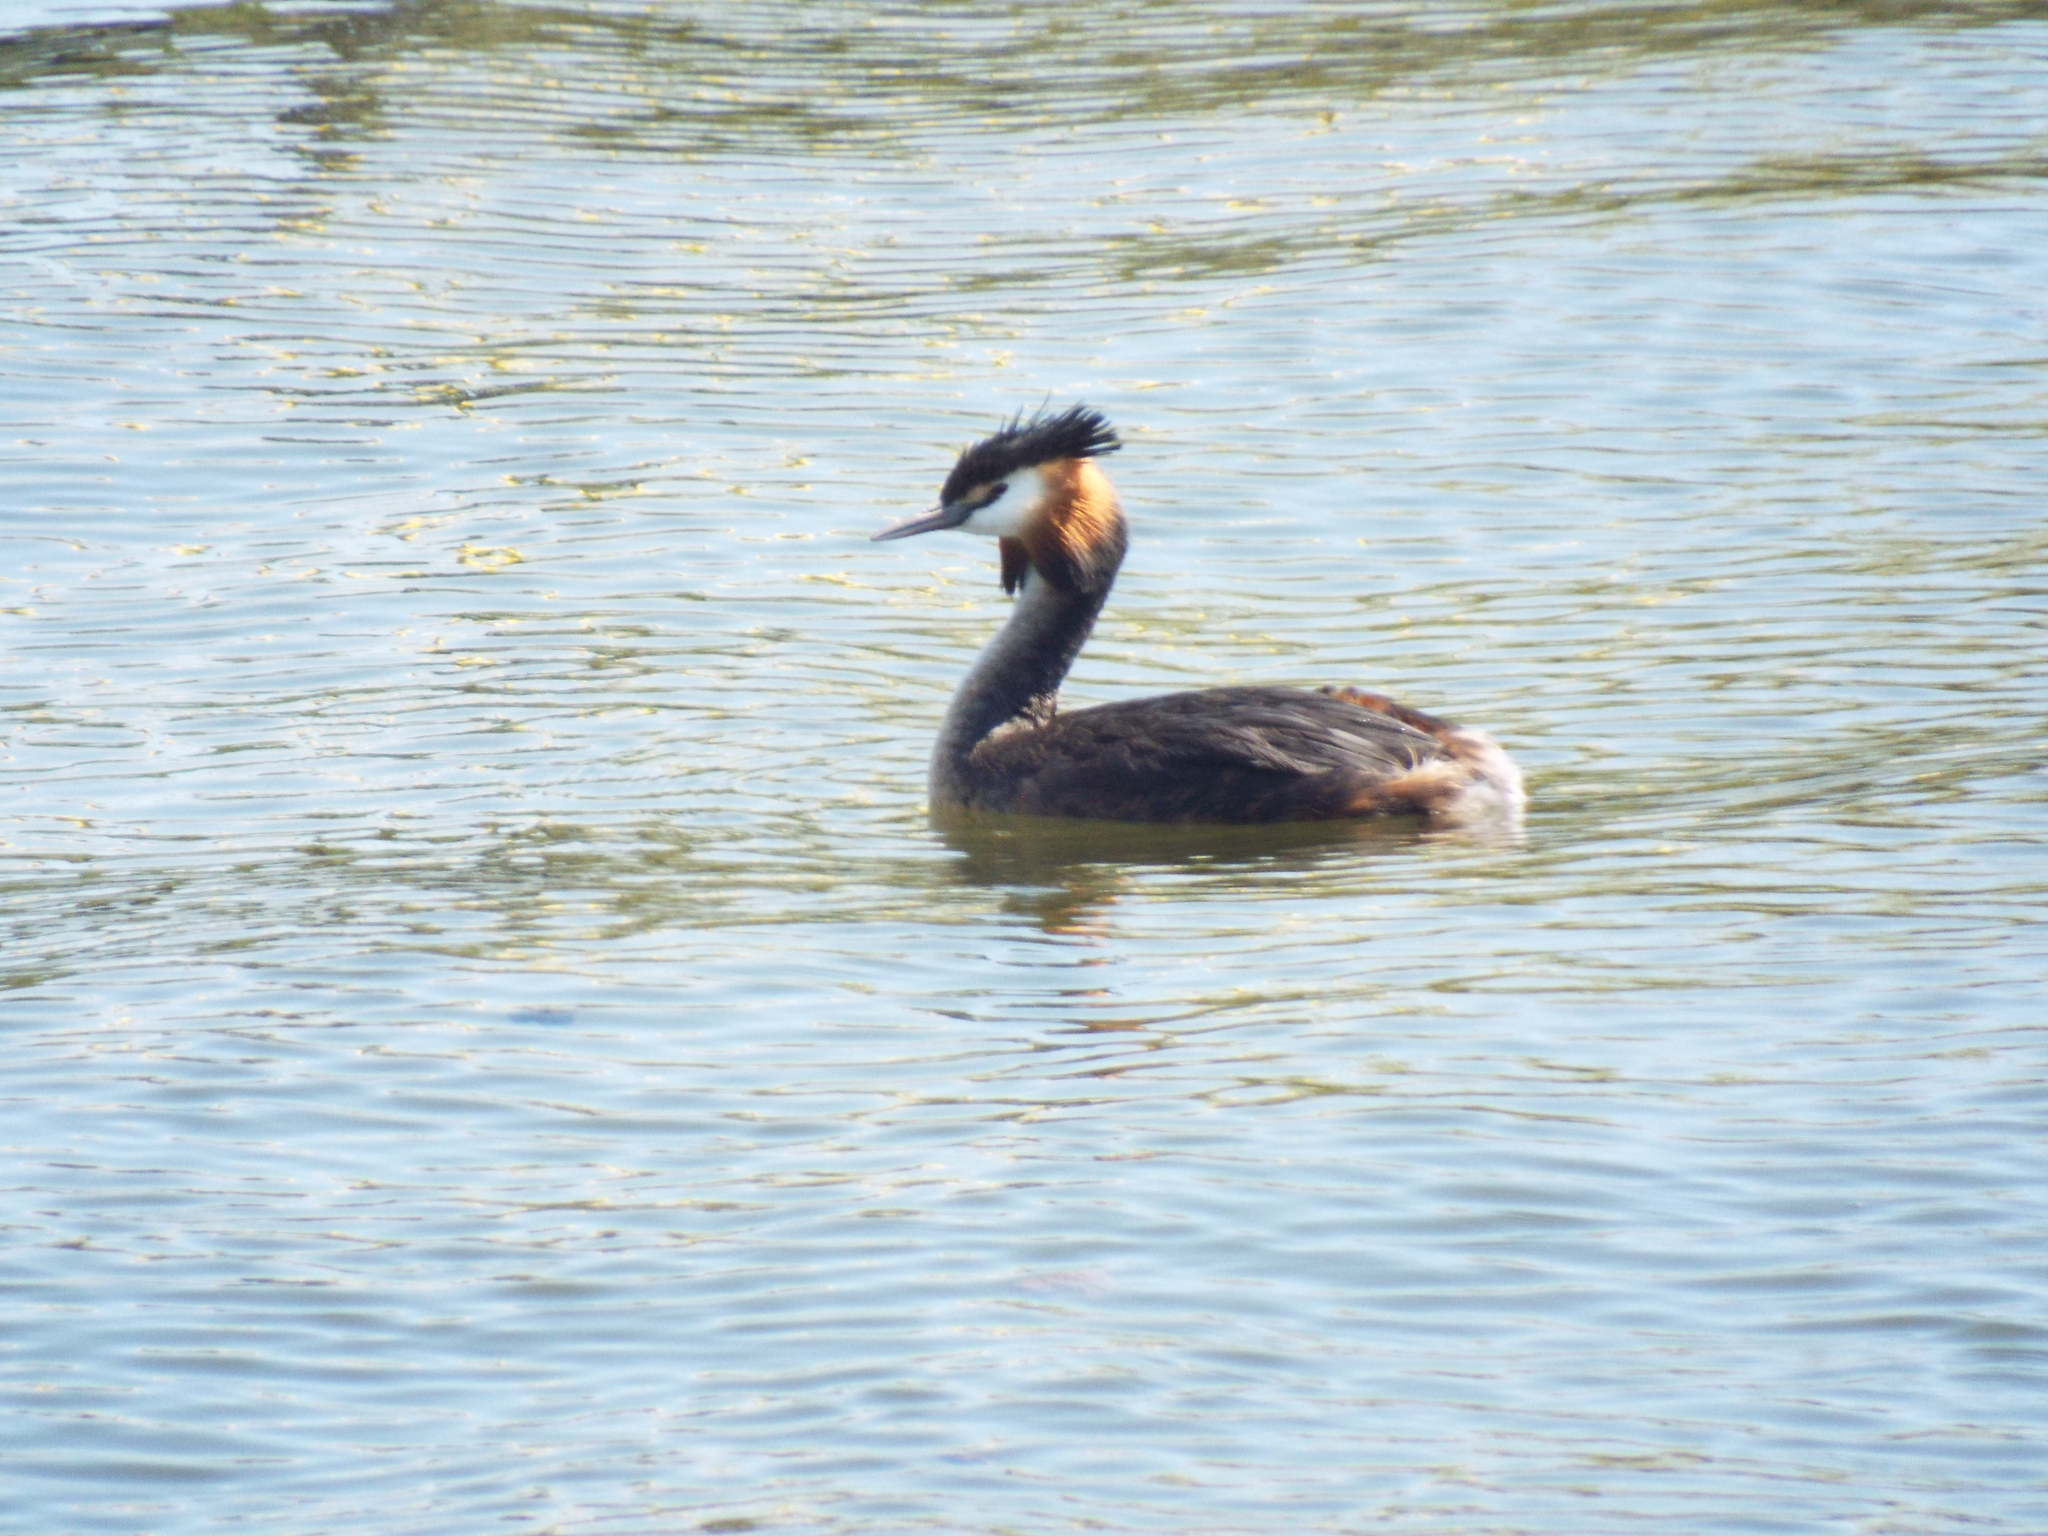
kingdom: Animalia
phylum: Chordata
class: Aves
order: Podicipediformes
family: Podicipedidae
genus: Podiceps
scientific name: Podiceps cristatus
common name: Great crested grebe
